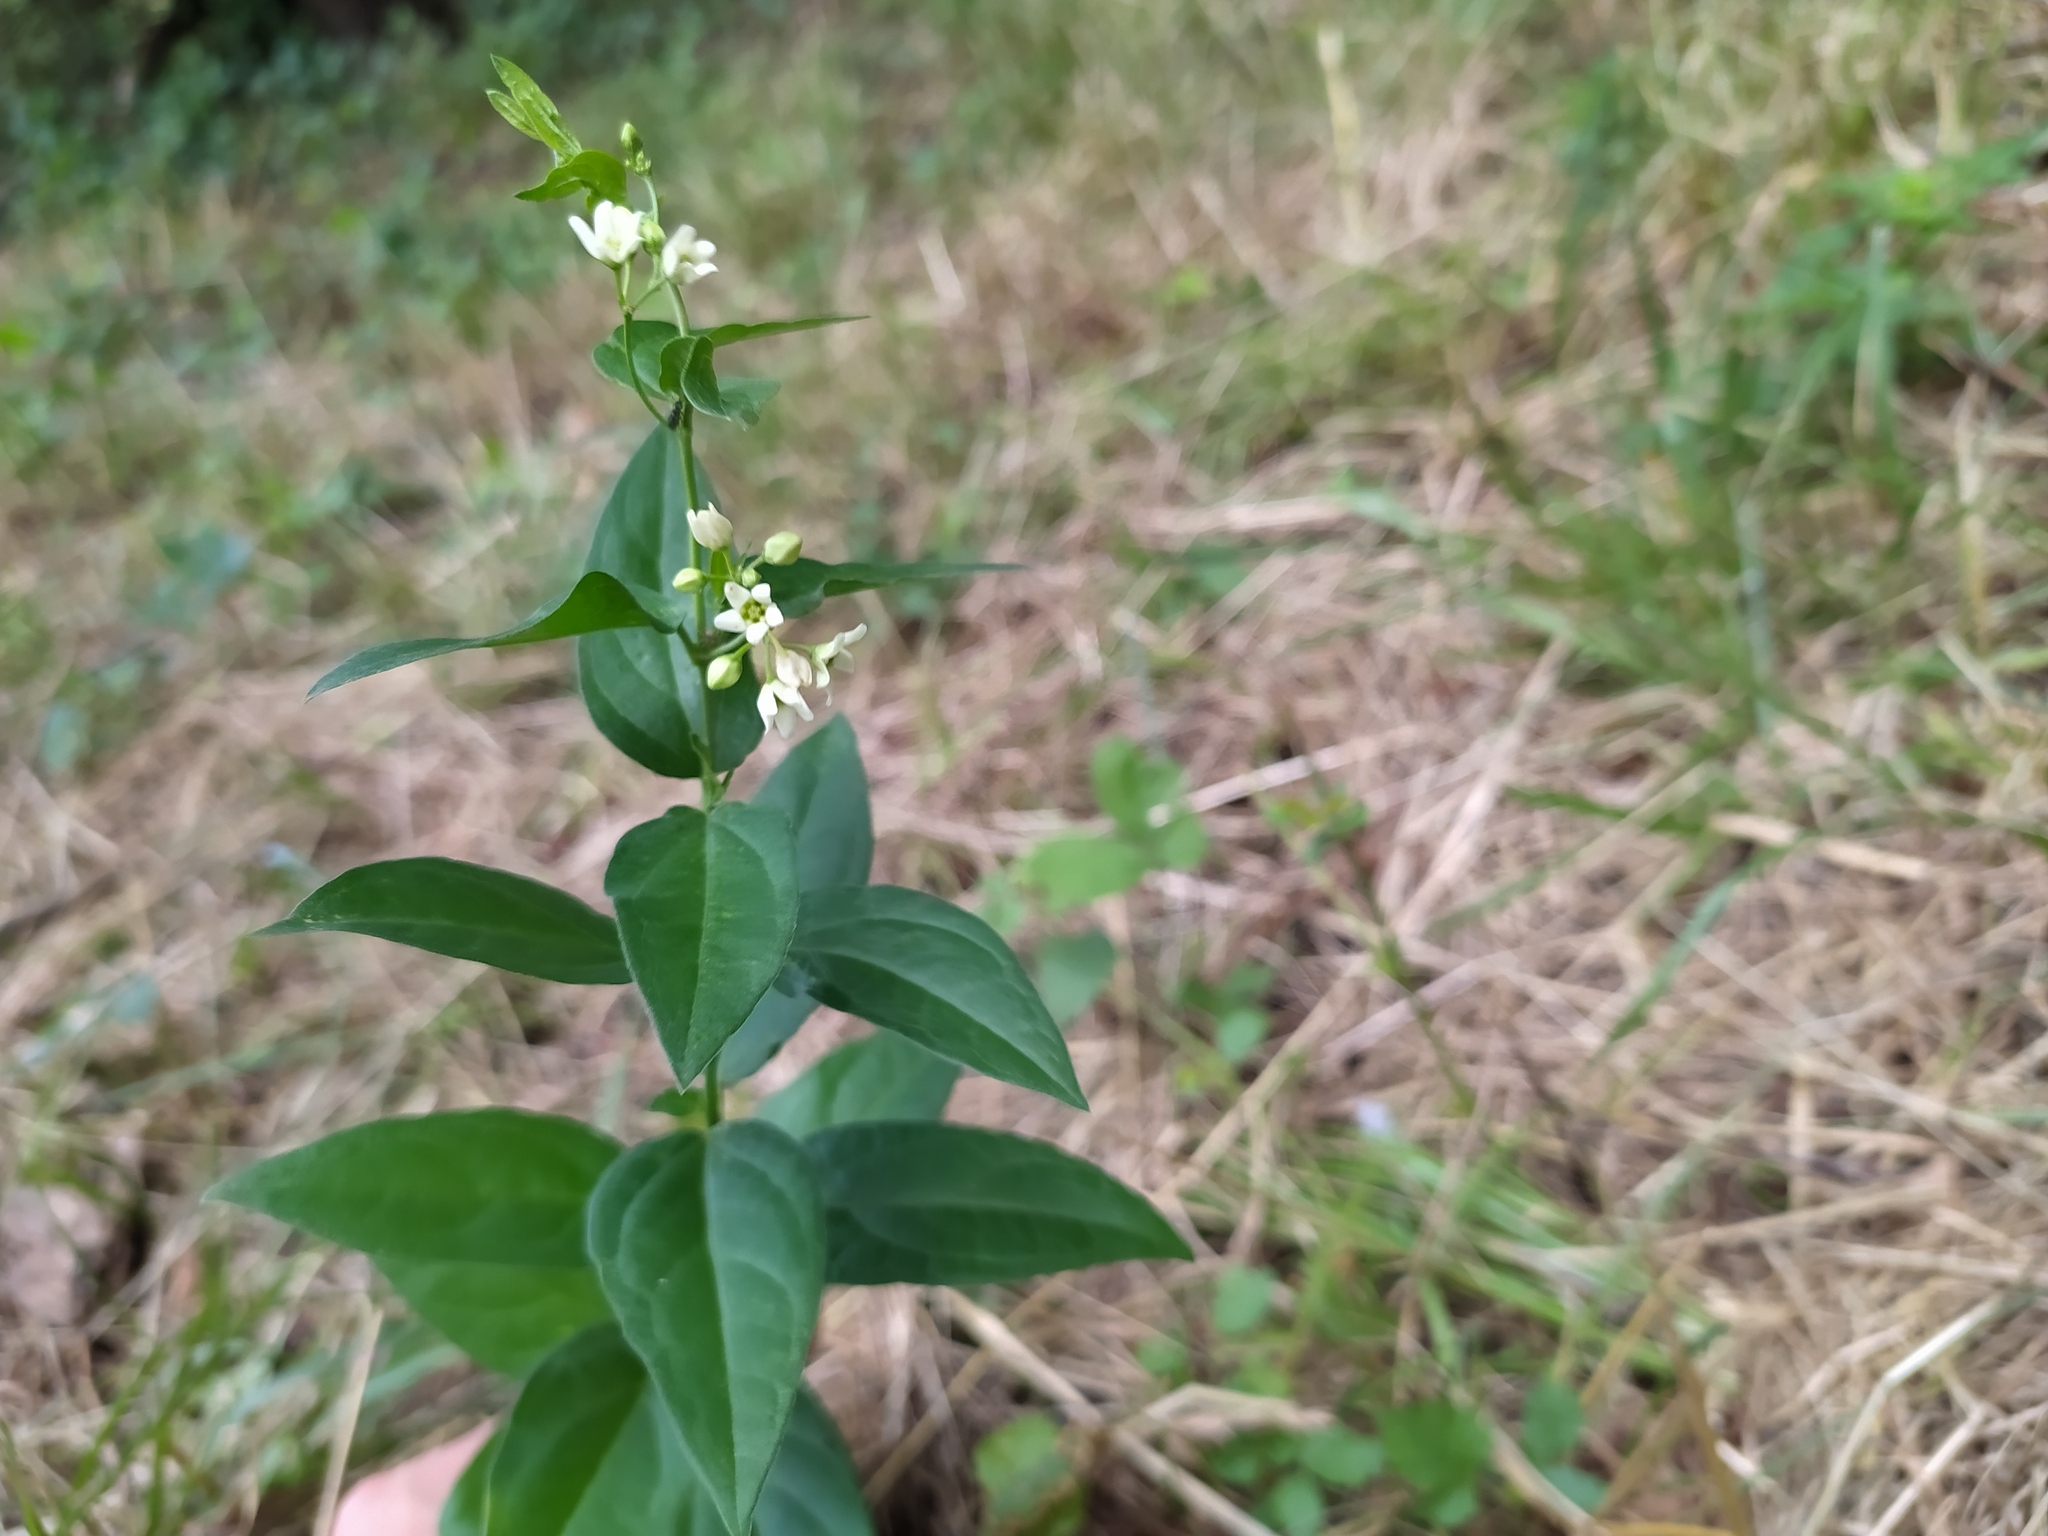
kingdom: Plantae
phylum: Tracheophyta
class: Magnoliopsida
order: Gentianales
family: Apocynaceae
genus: Vincetoxicum
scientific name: Vincetoxicum hirundinaria
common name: White swallowwort
